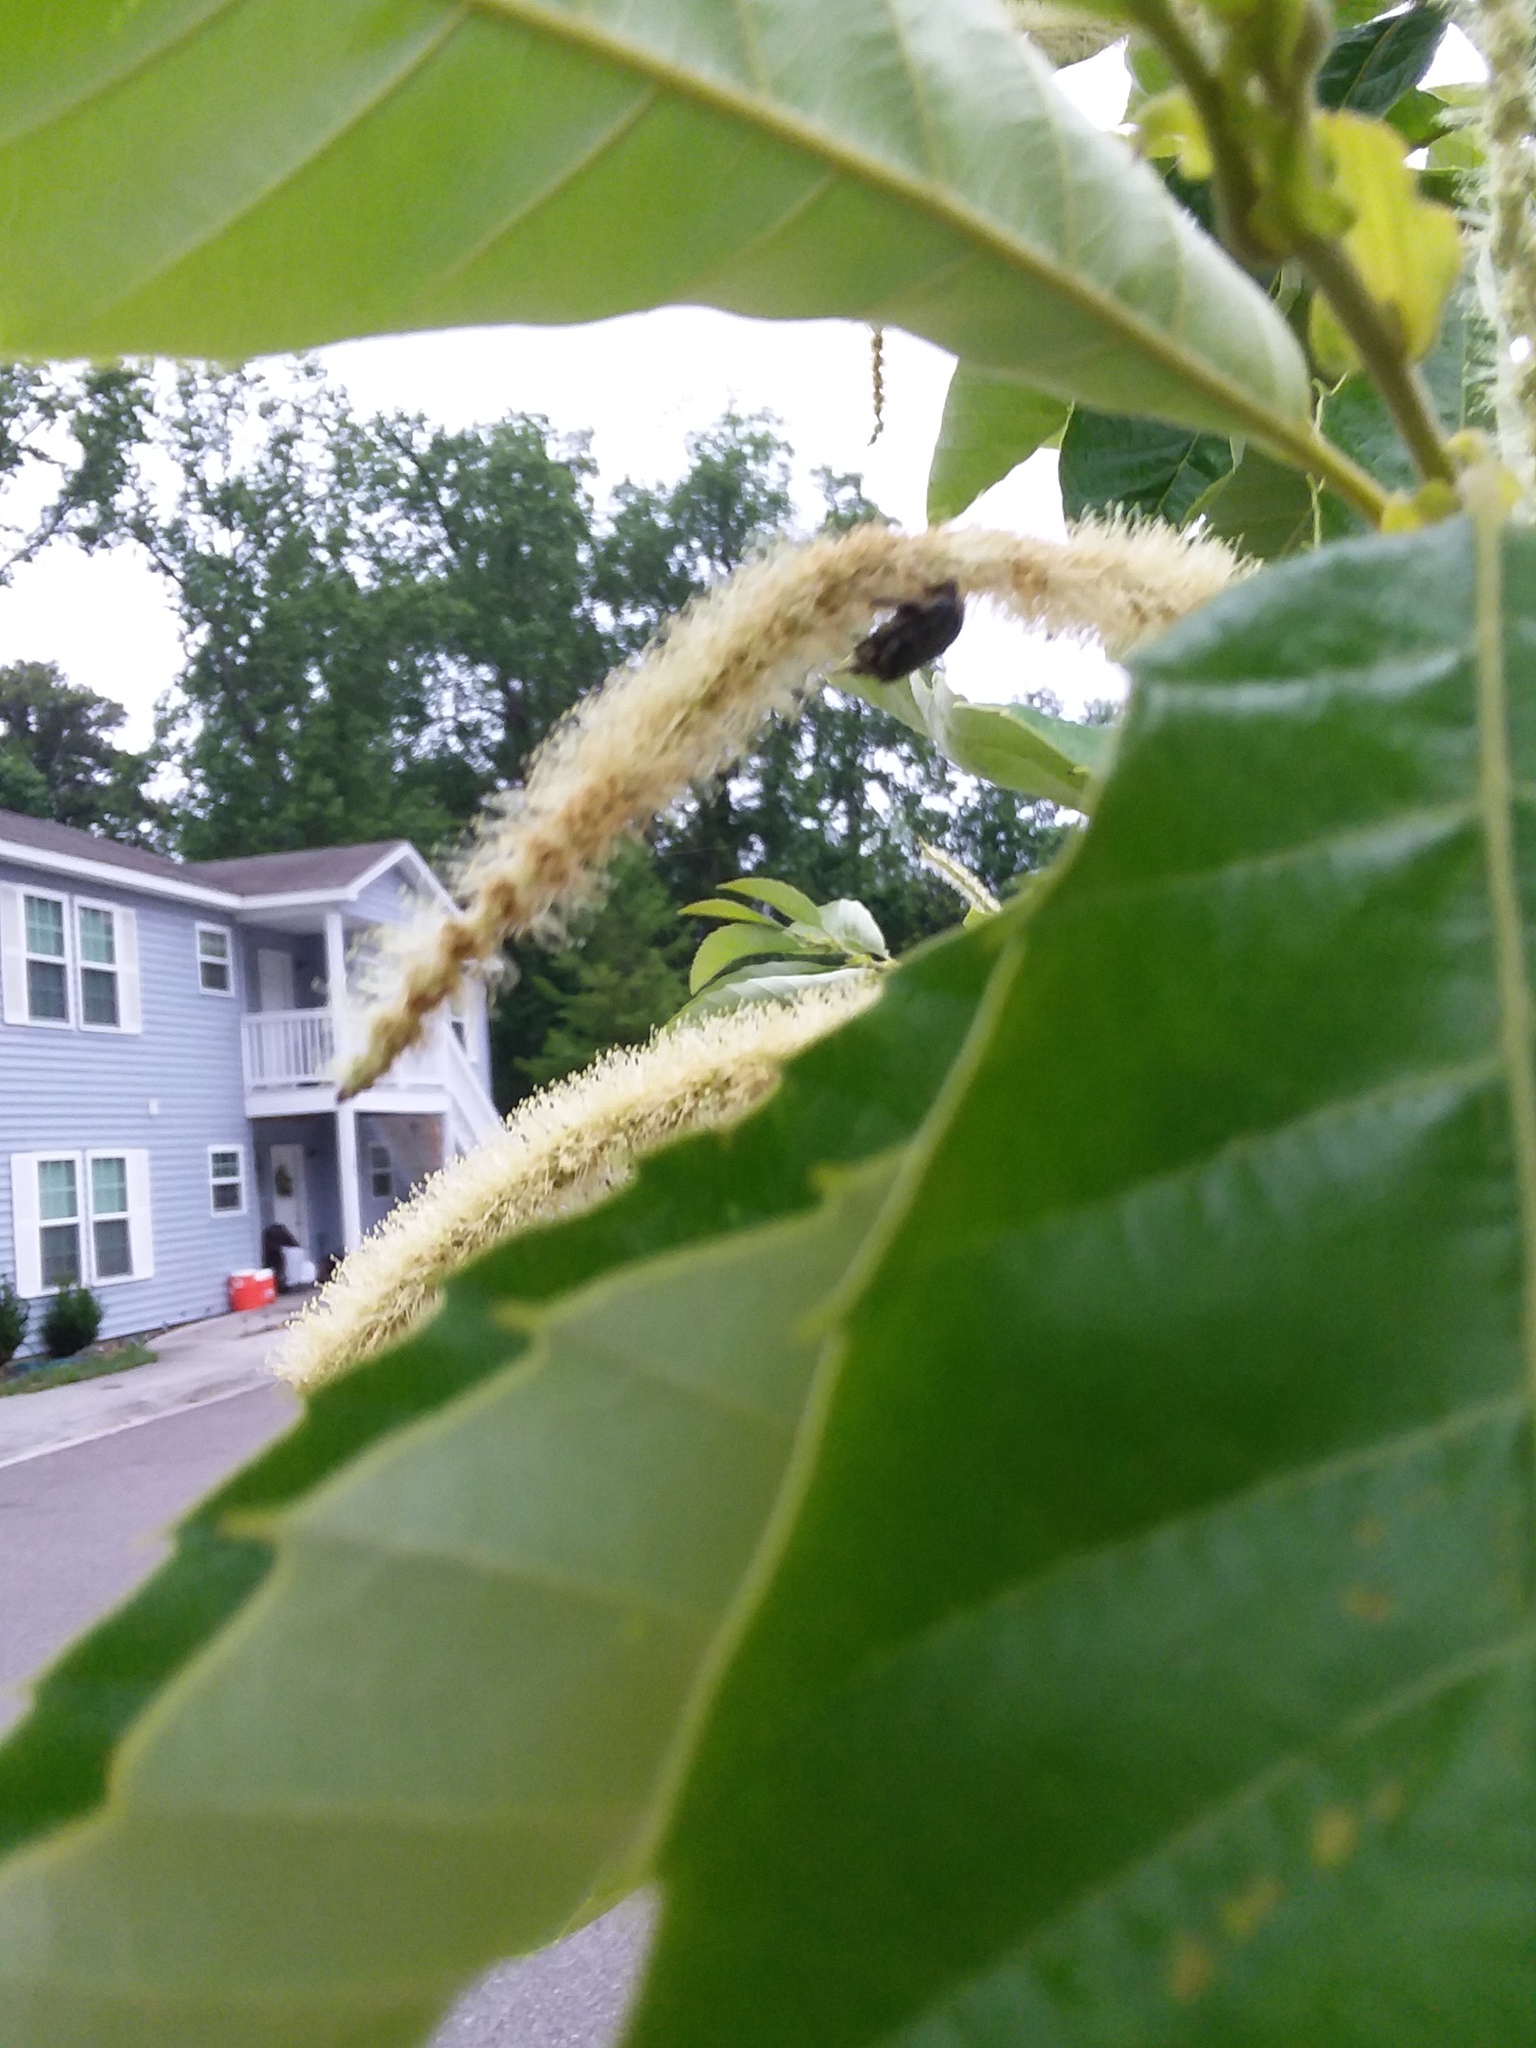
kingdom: Animalia
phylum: Arthropoda
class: Insecta
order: Diptera
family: Bibionidae
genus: Plecia
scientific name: Plecia nearctica
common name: March fly
